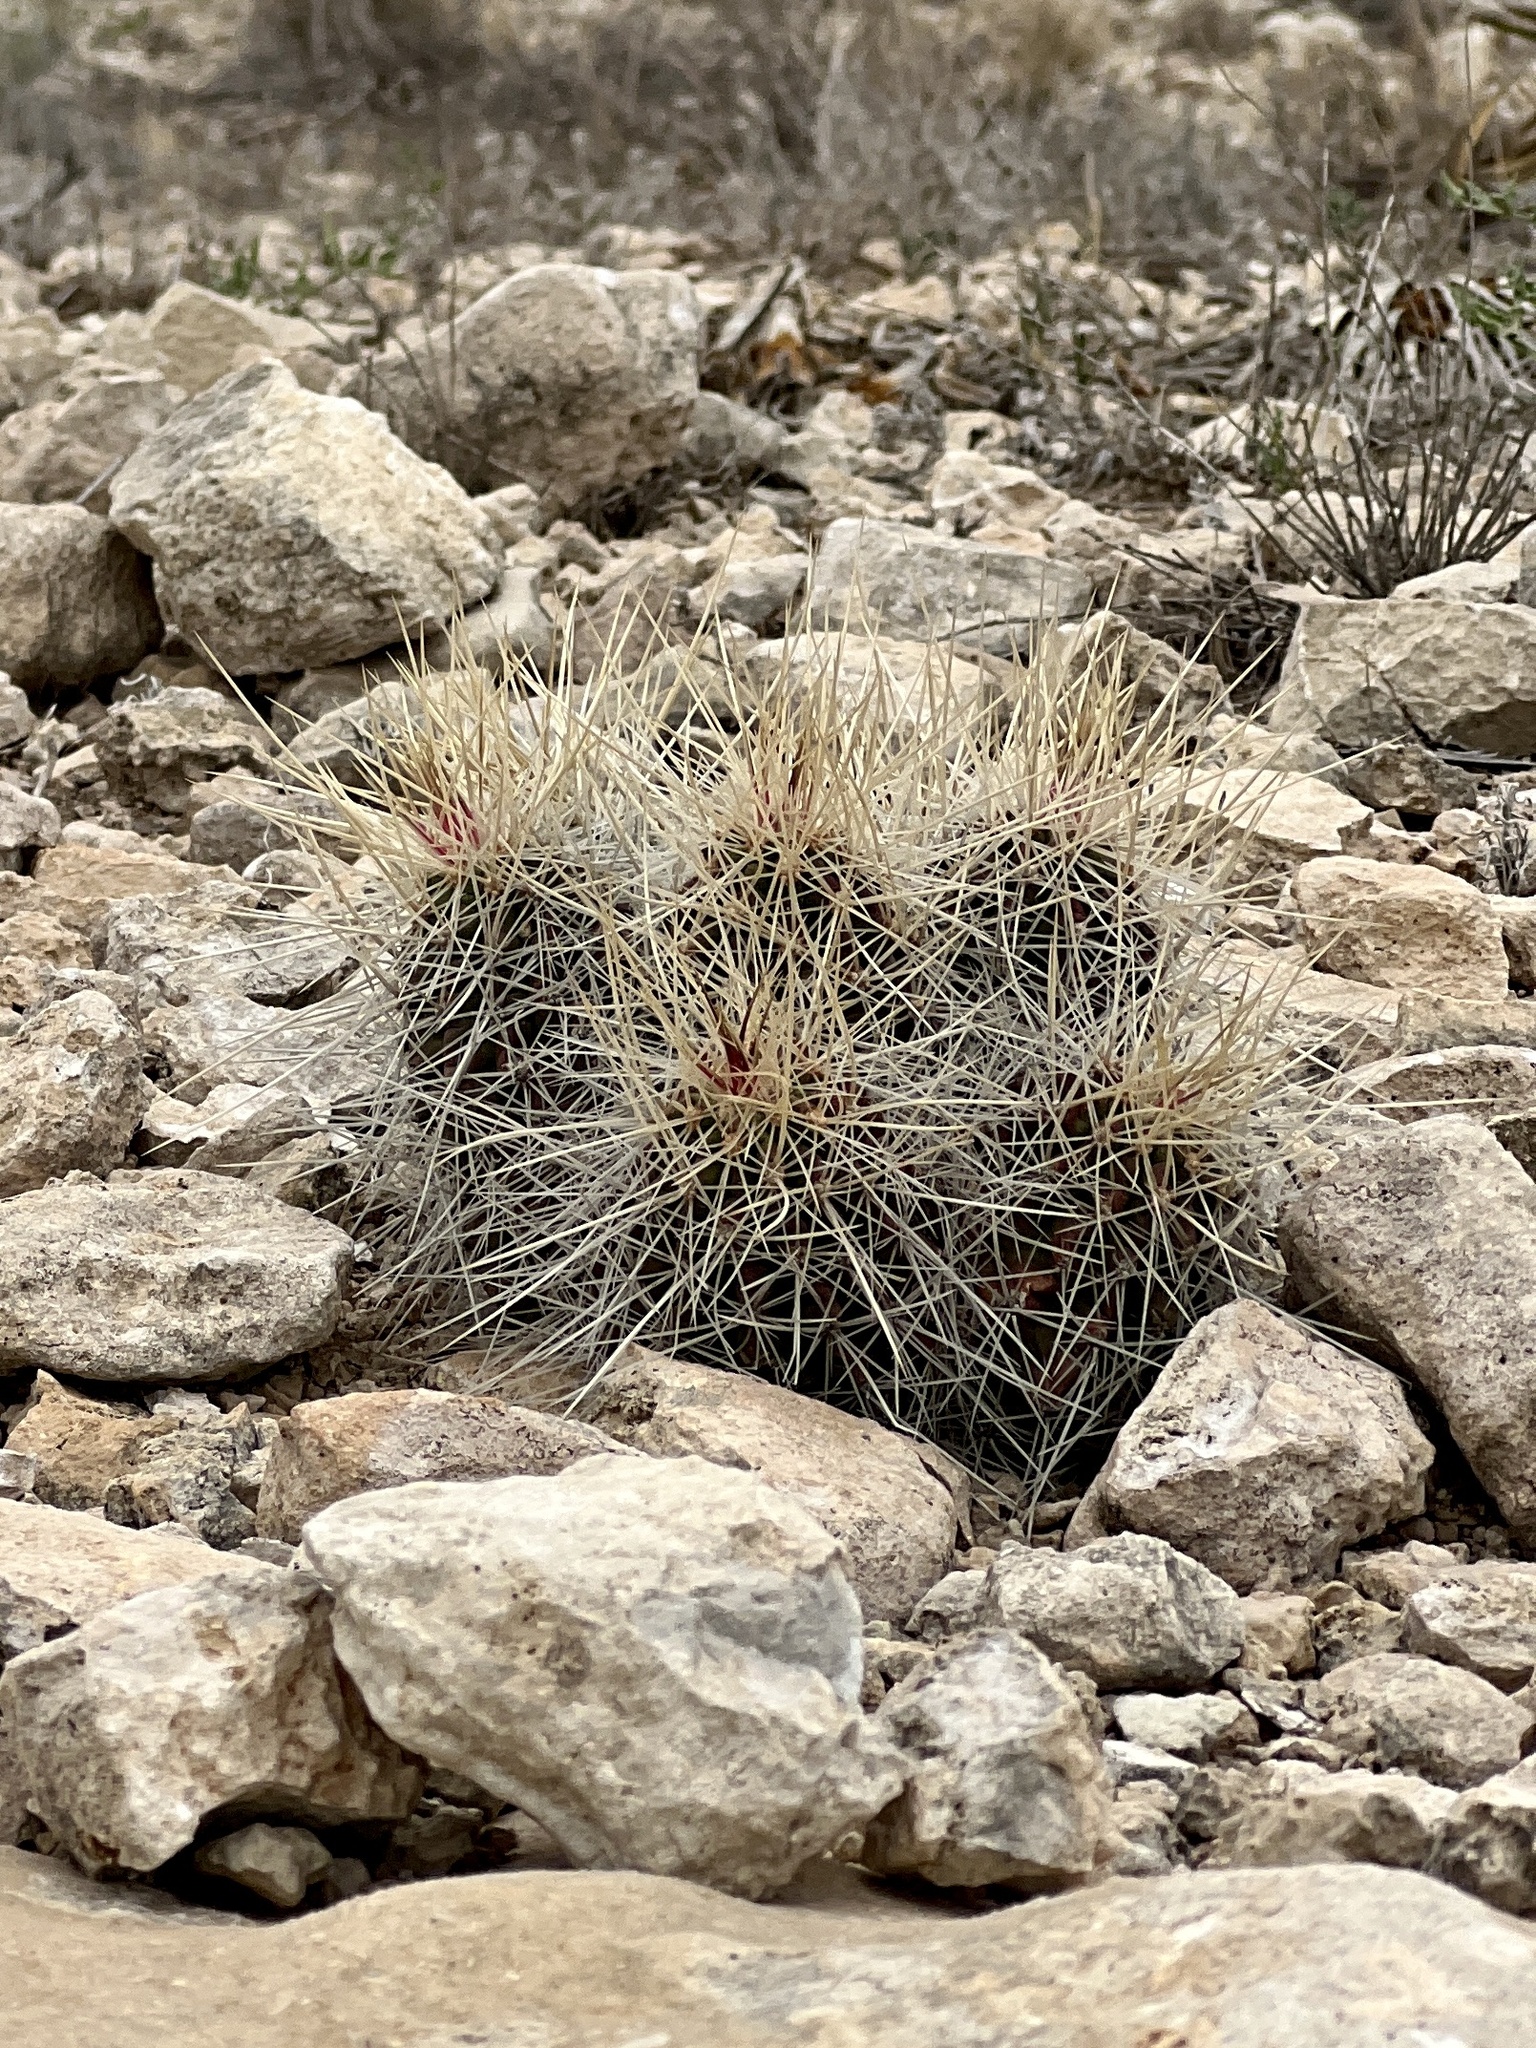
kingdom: Plantae
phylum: Tracheophyta
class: Magnoliopsida
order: Caryophyllales
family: Cactaceae
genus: Echinocereus
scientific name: Echinocereus stramineus
